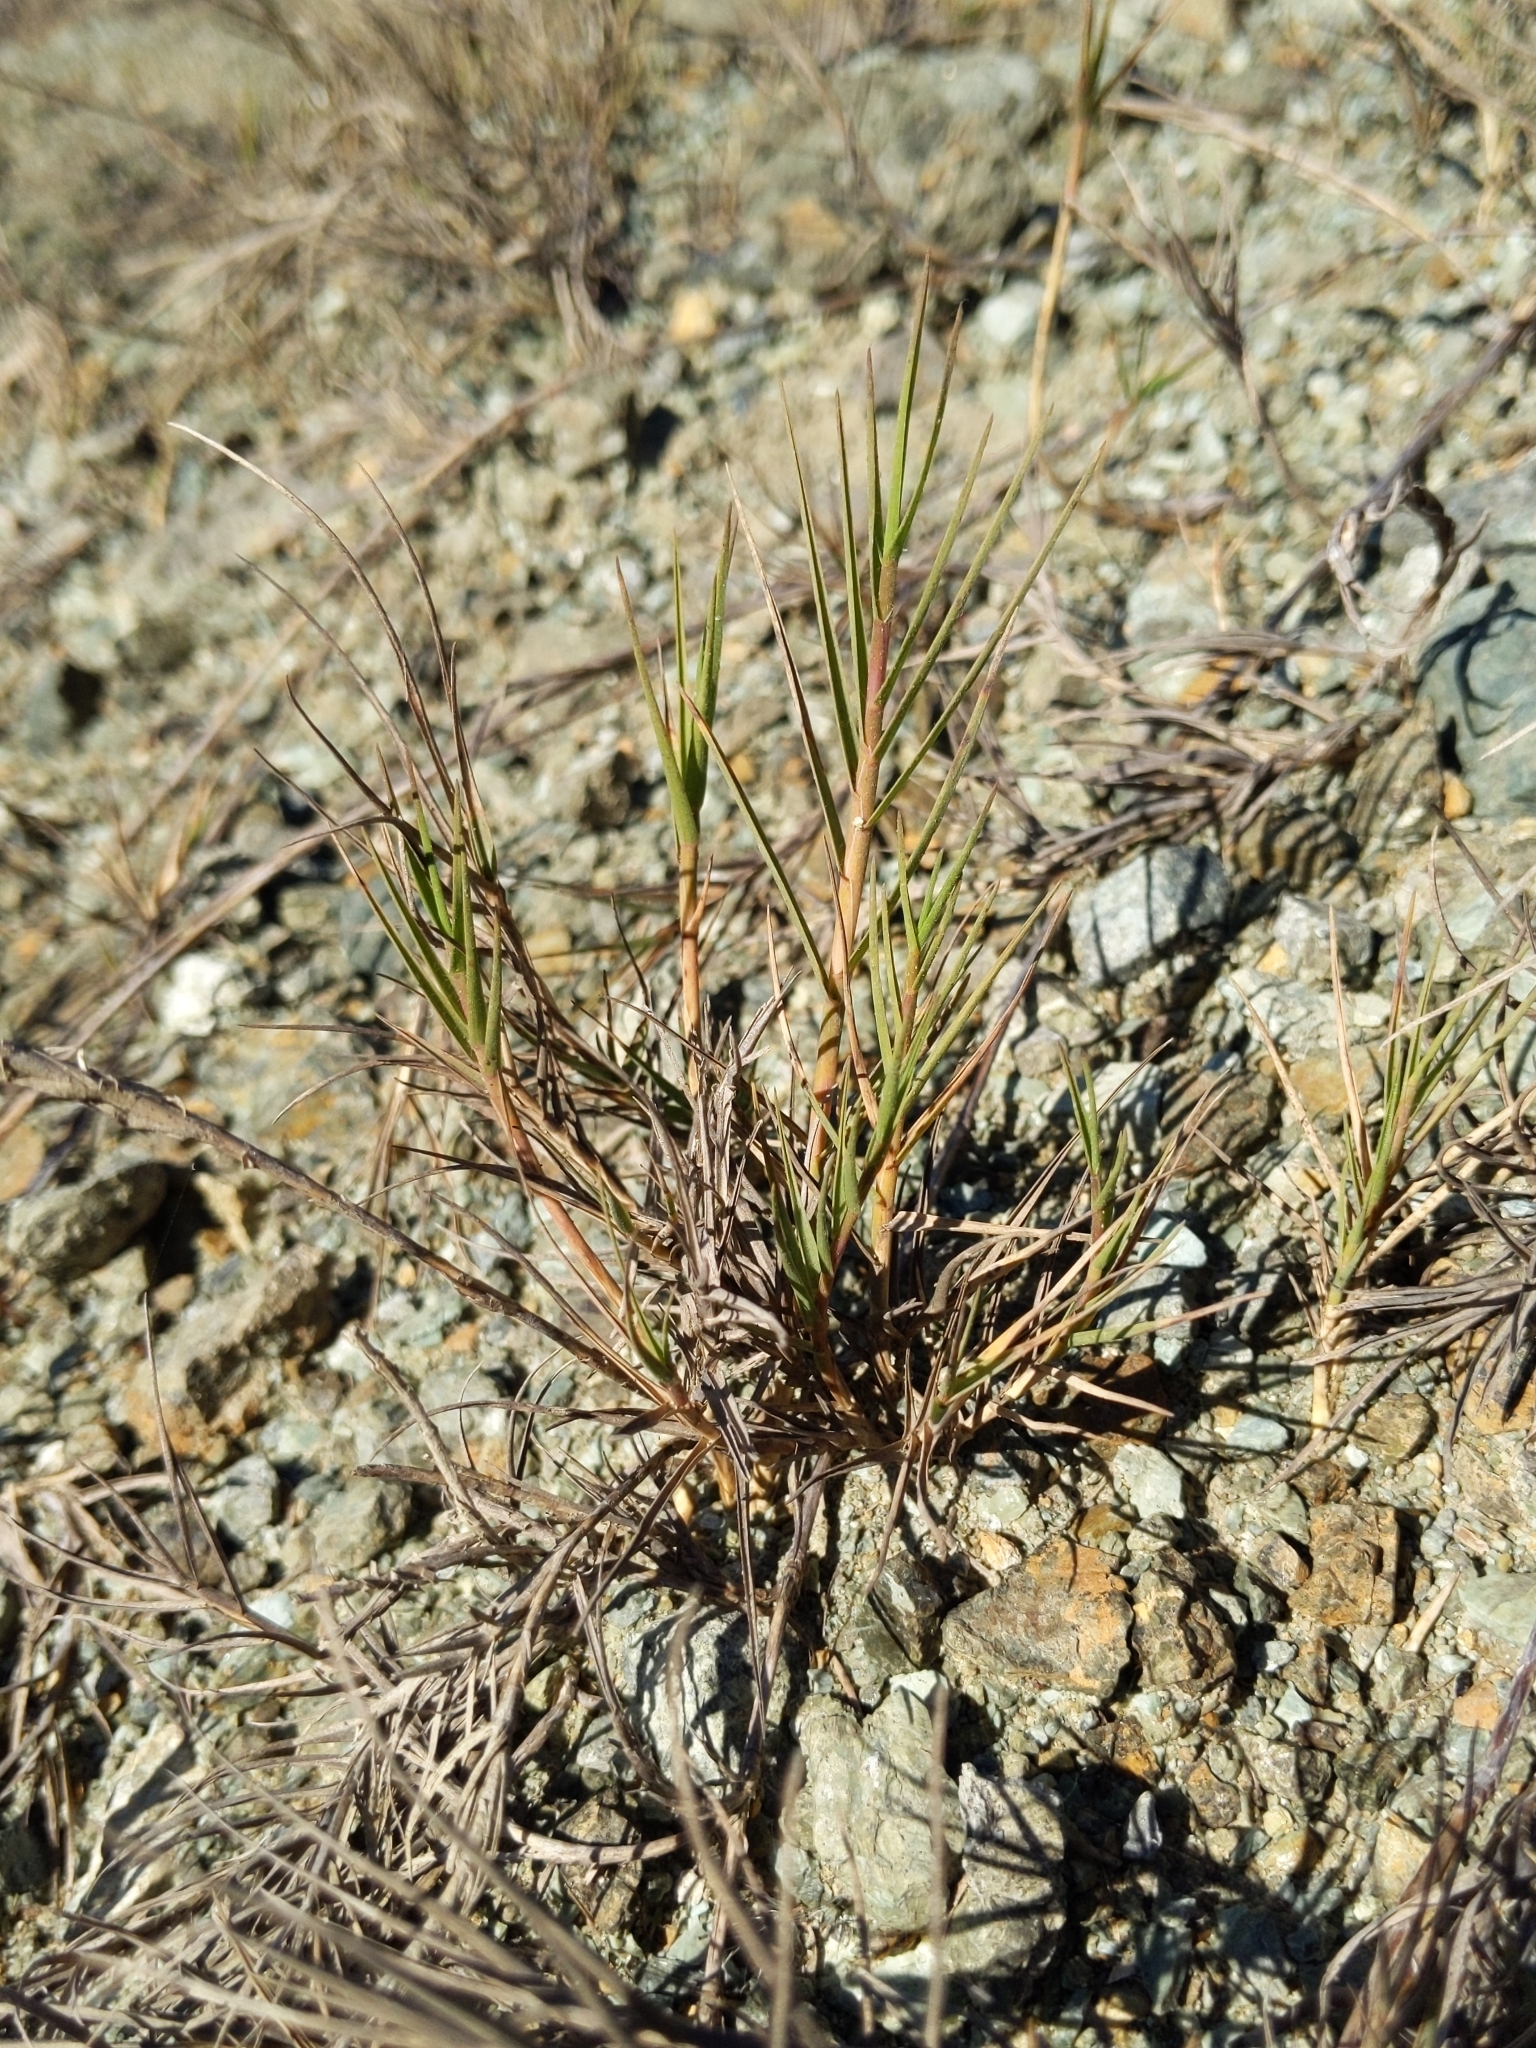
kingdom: Plantae
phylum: Tracheophyta
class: Liliopsida
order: Poales
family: Poaceae
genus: Distichlis
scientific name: Distichlis spicata
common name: Saltgrass
